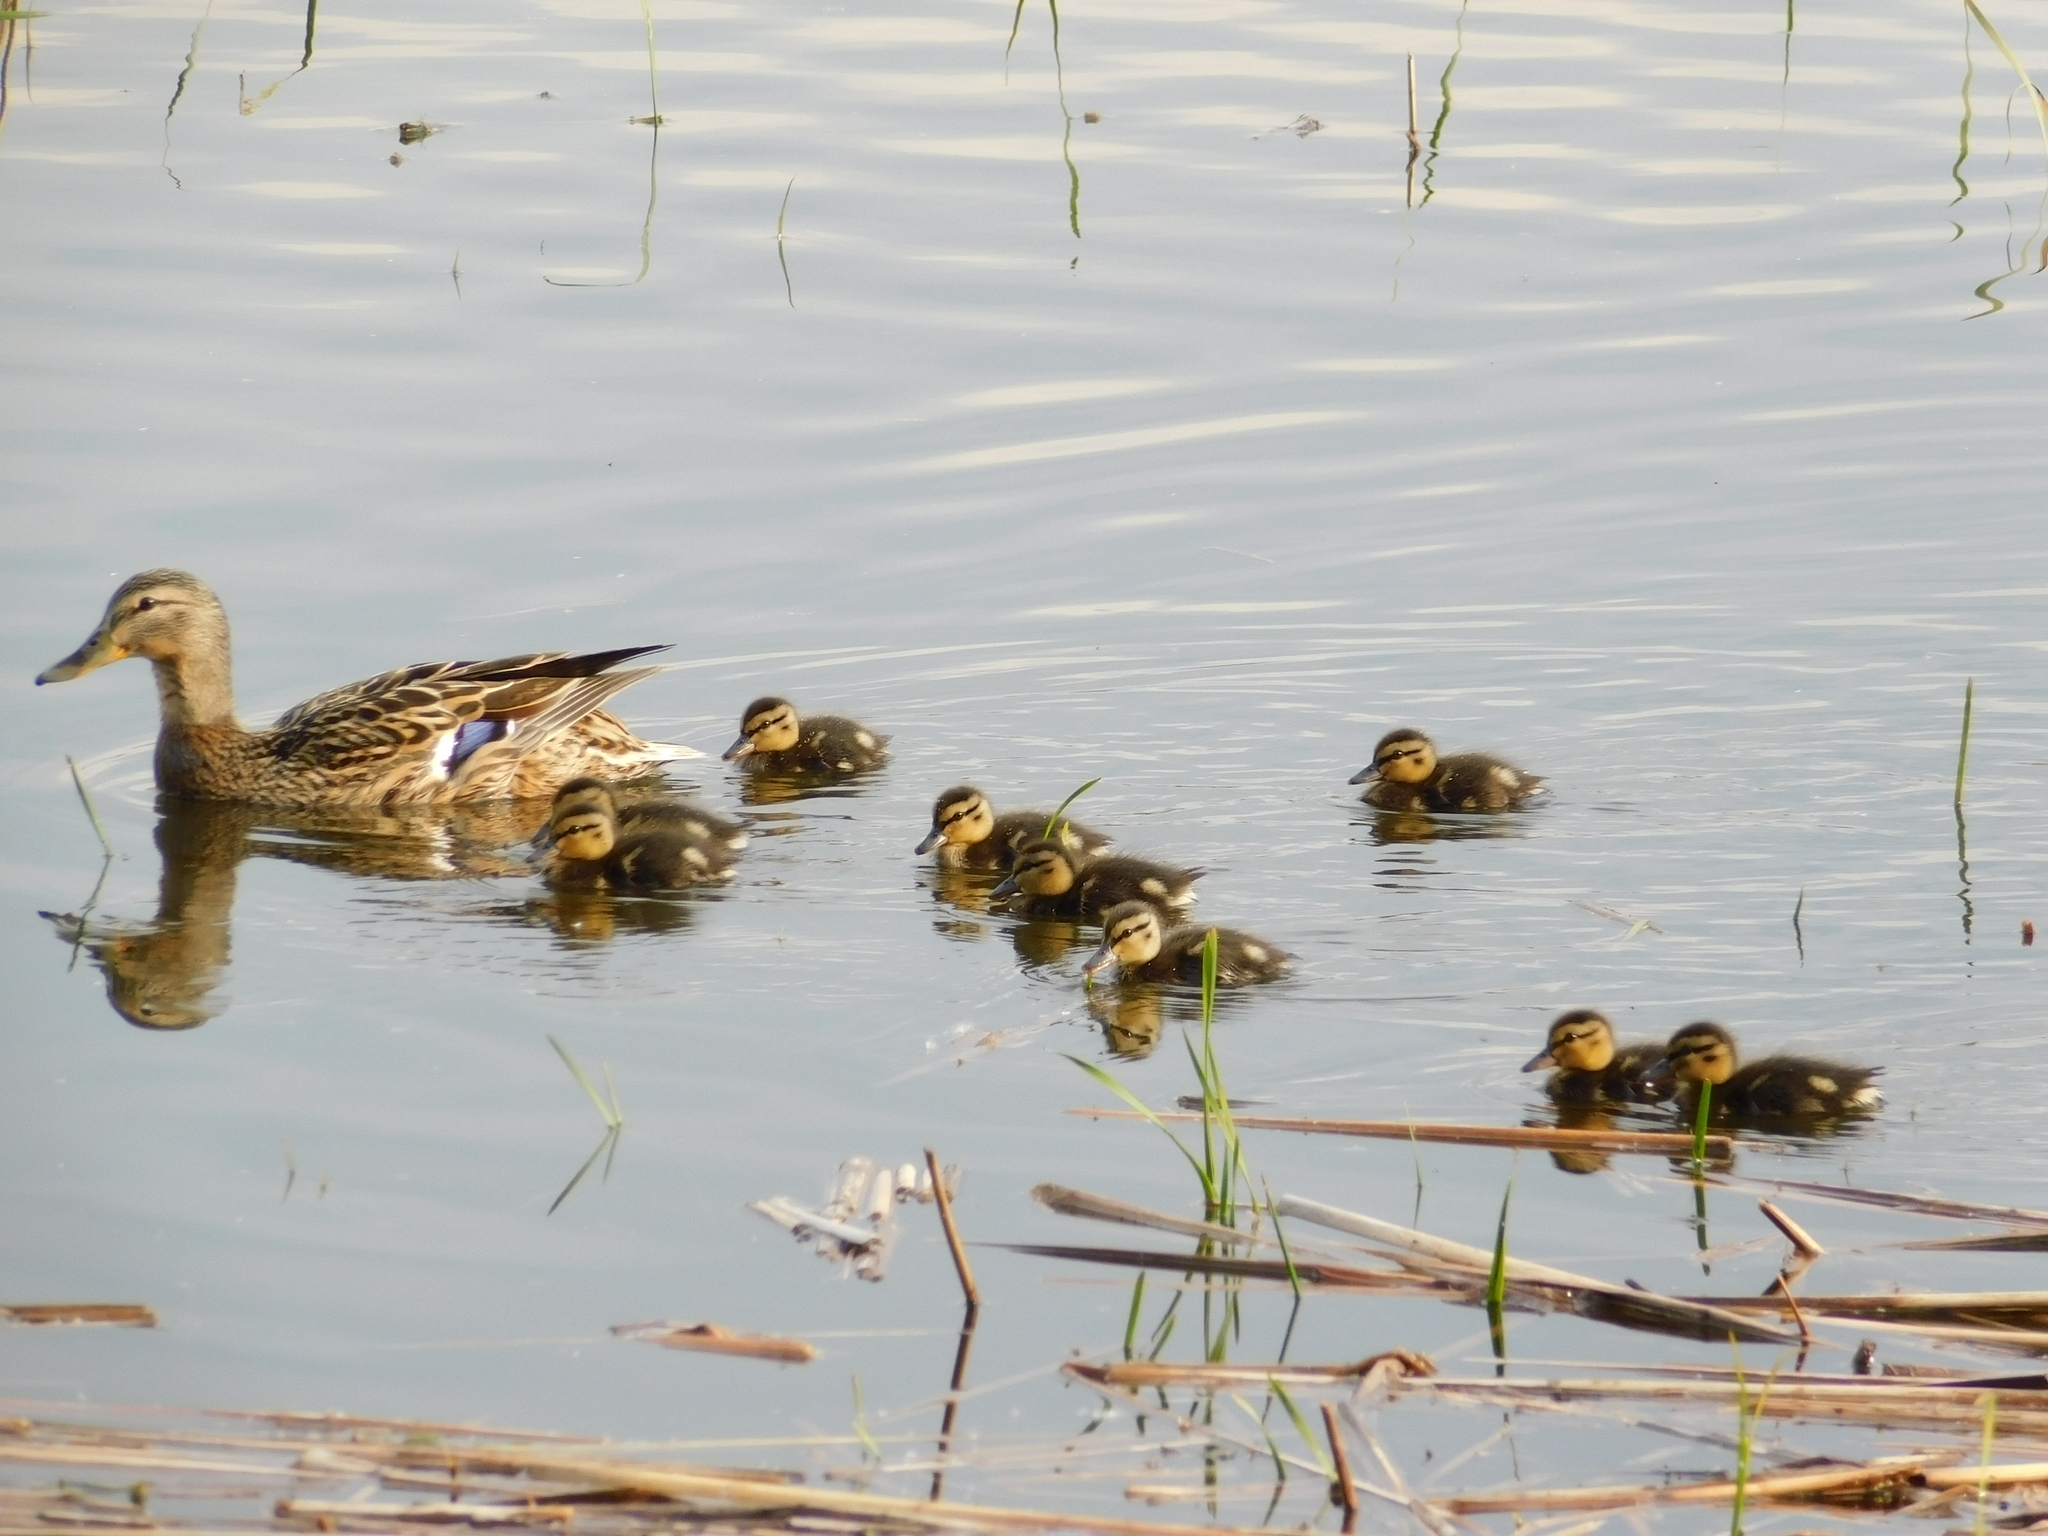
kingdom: Animalia
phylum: Chordata
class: Aves
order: Anseriformes
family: Anatidae
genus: Anas
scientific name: Anas platyrhynchos
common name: Mallard
